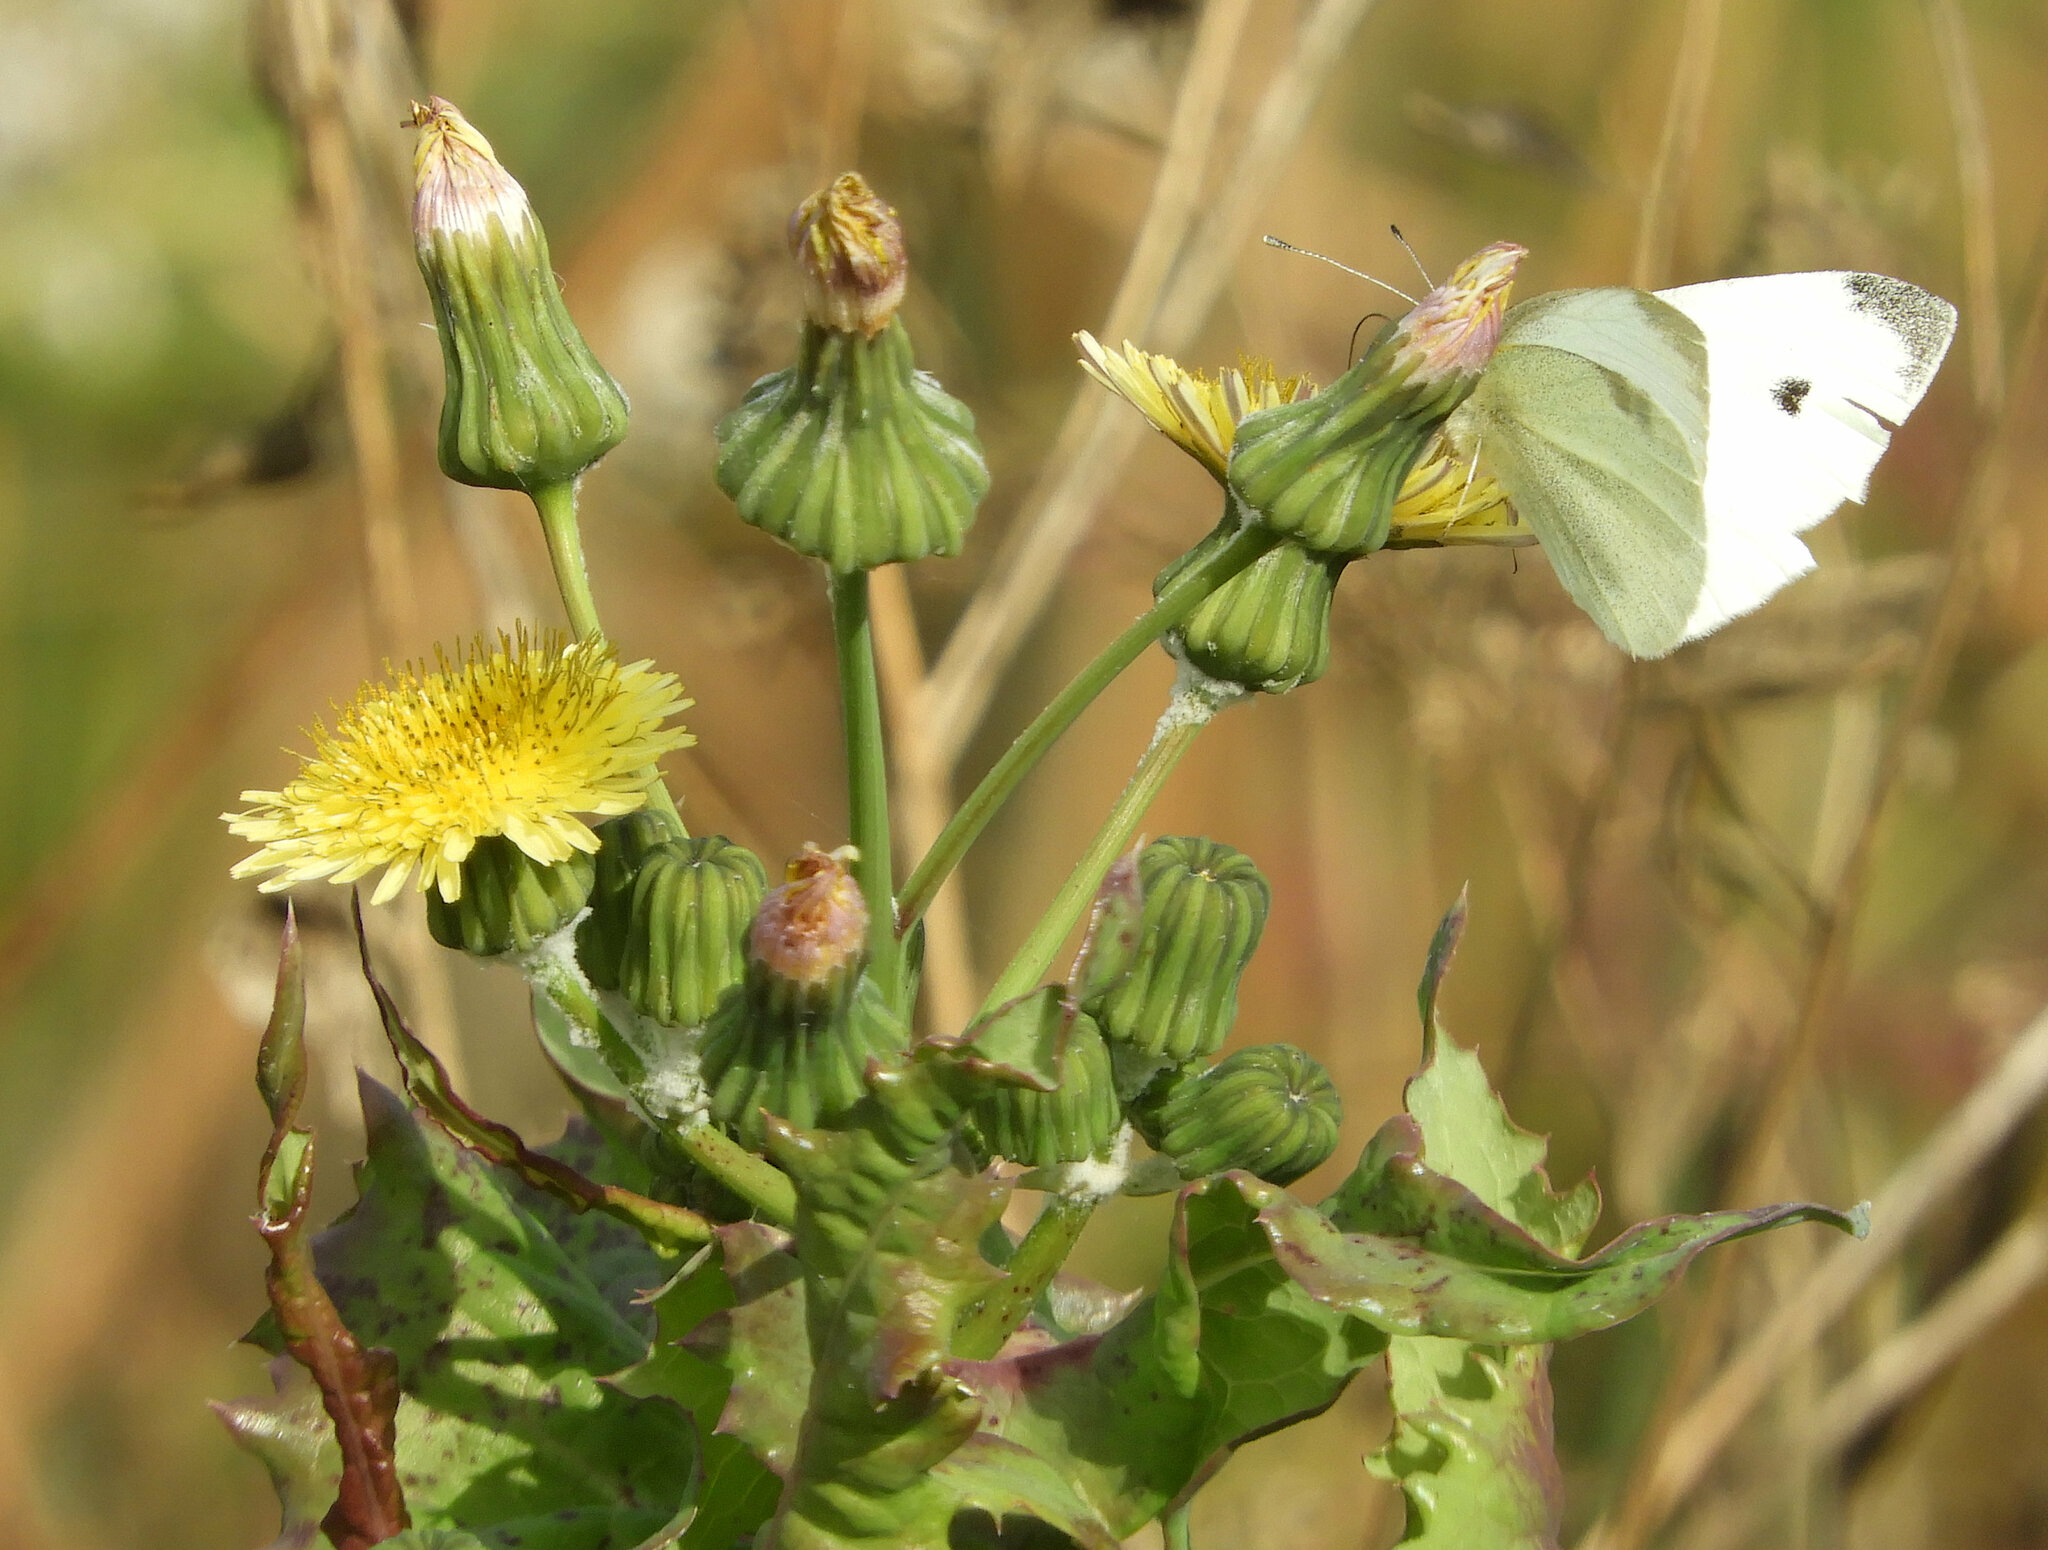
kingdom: Animalia
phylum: Arthropoda
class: Insecta
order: Lepidoptera
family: Pieridae
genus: Pieris
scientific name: Pieris rapae
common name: Small white
